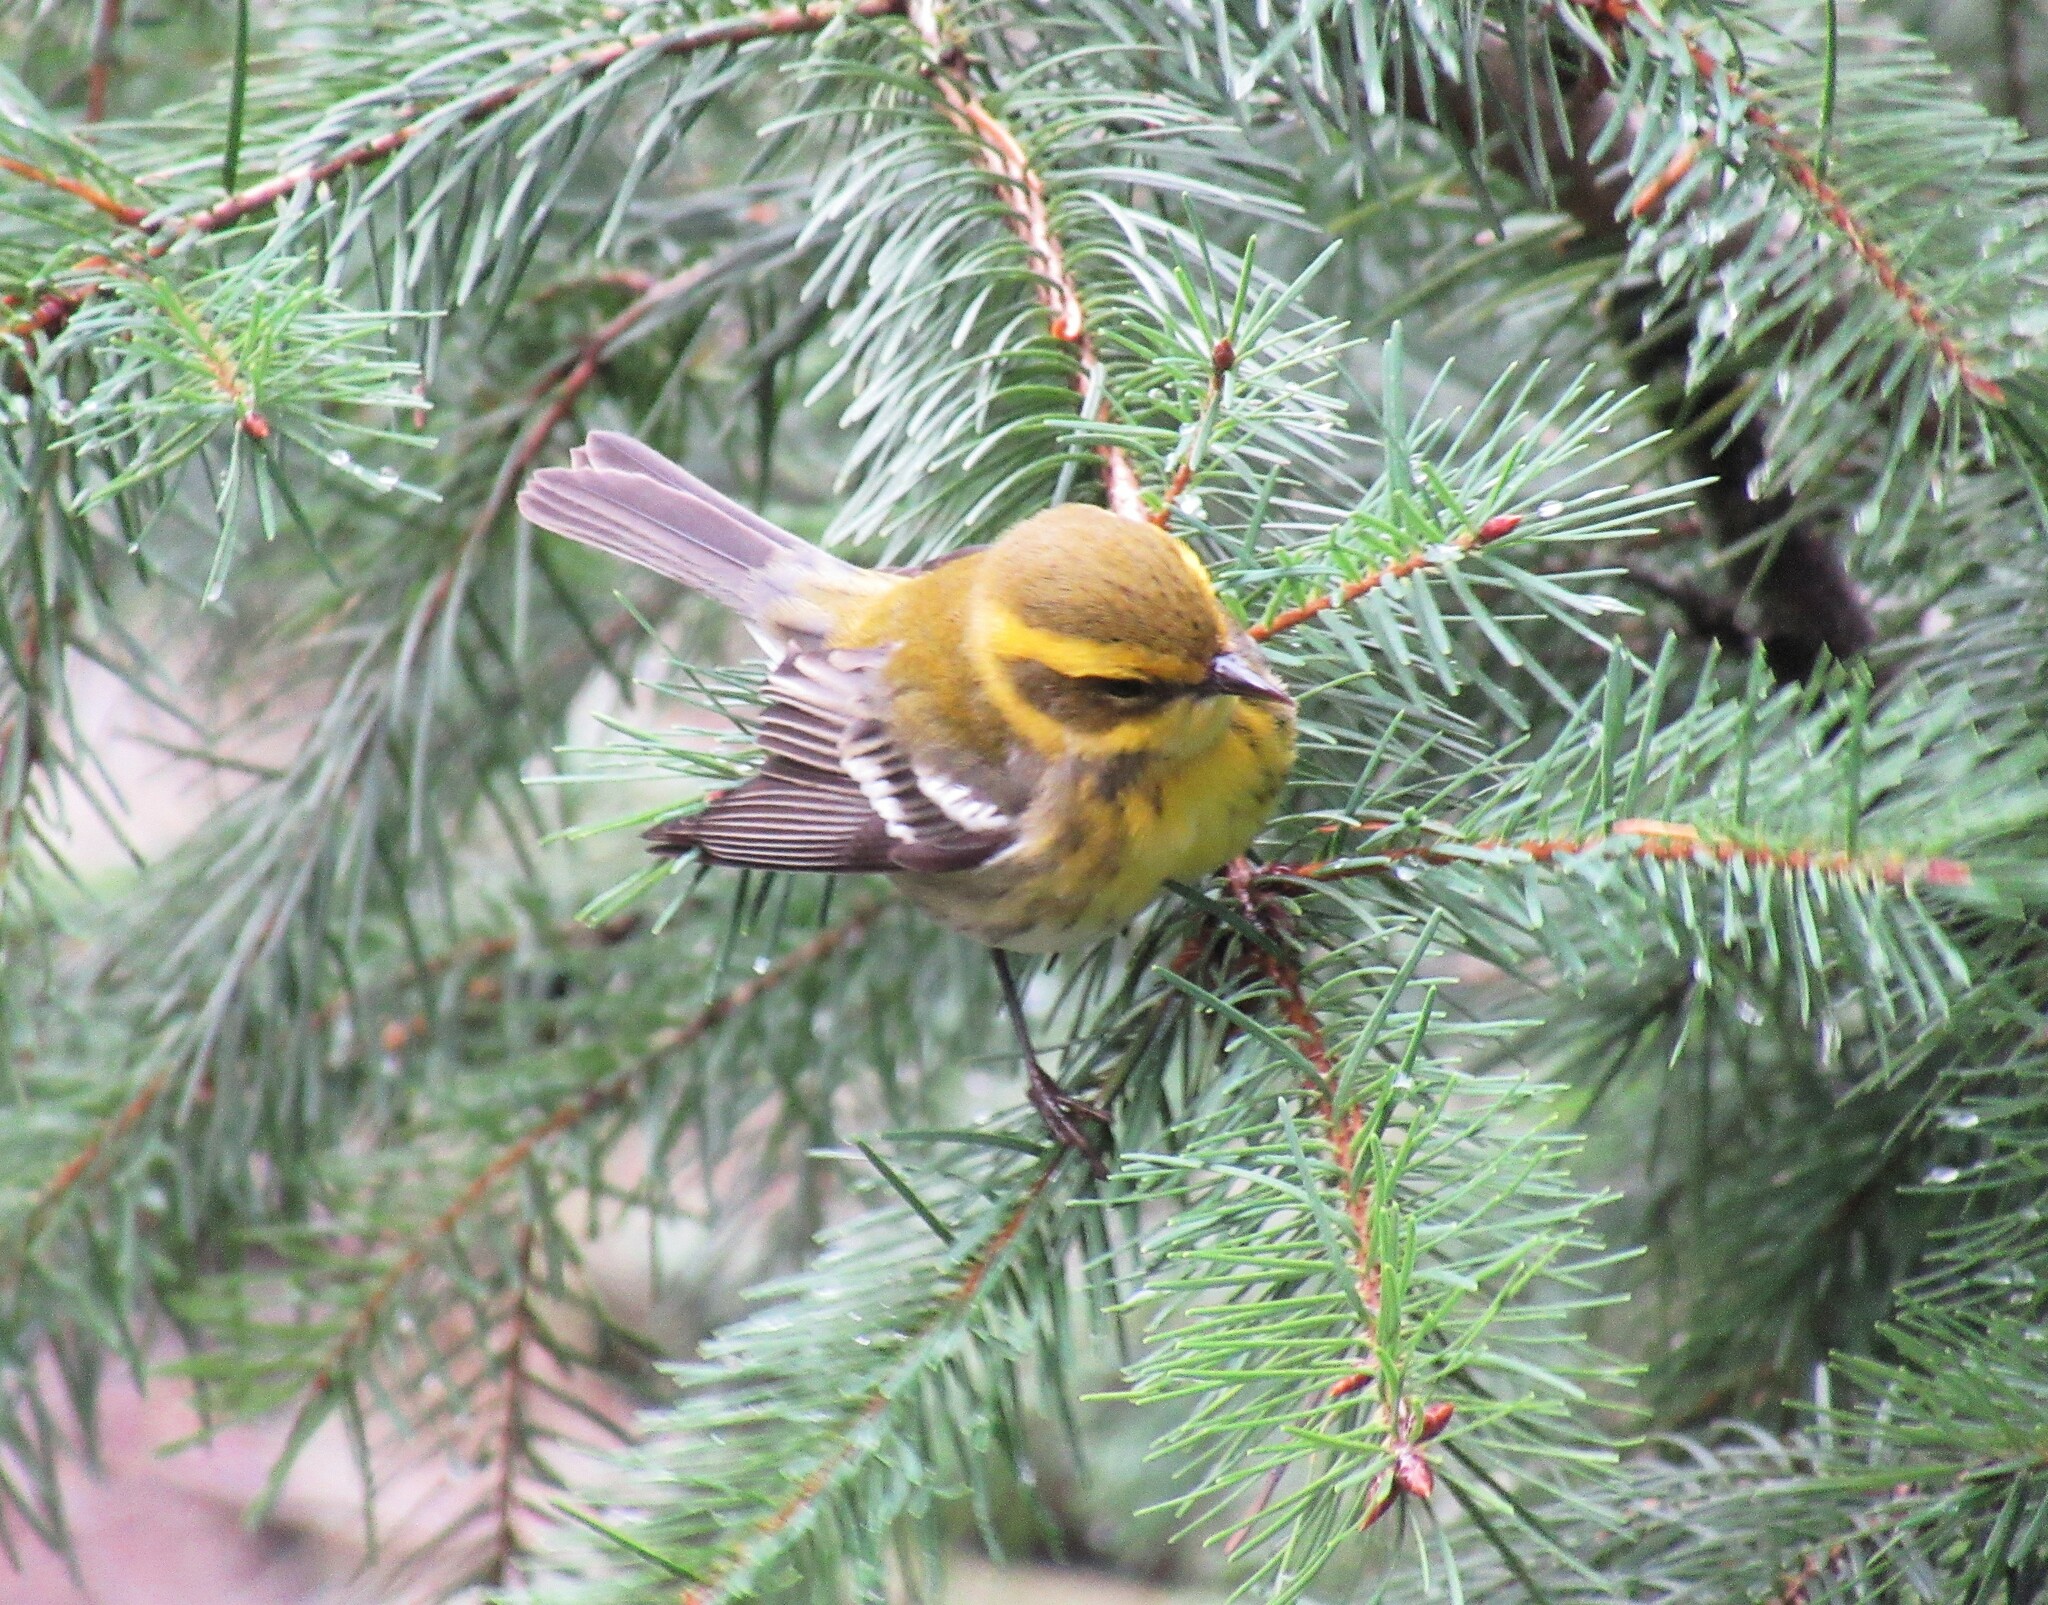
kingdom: Animalia
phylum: Chordata
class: Aves
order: Passeriformes
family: Parulidae
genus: Setophaga
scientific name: Setophaga townsendi
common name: Townsend's warbler
